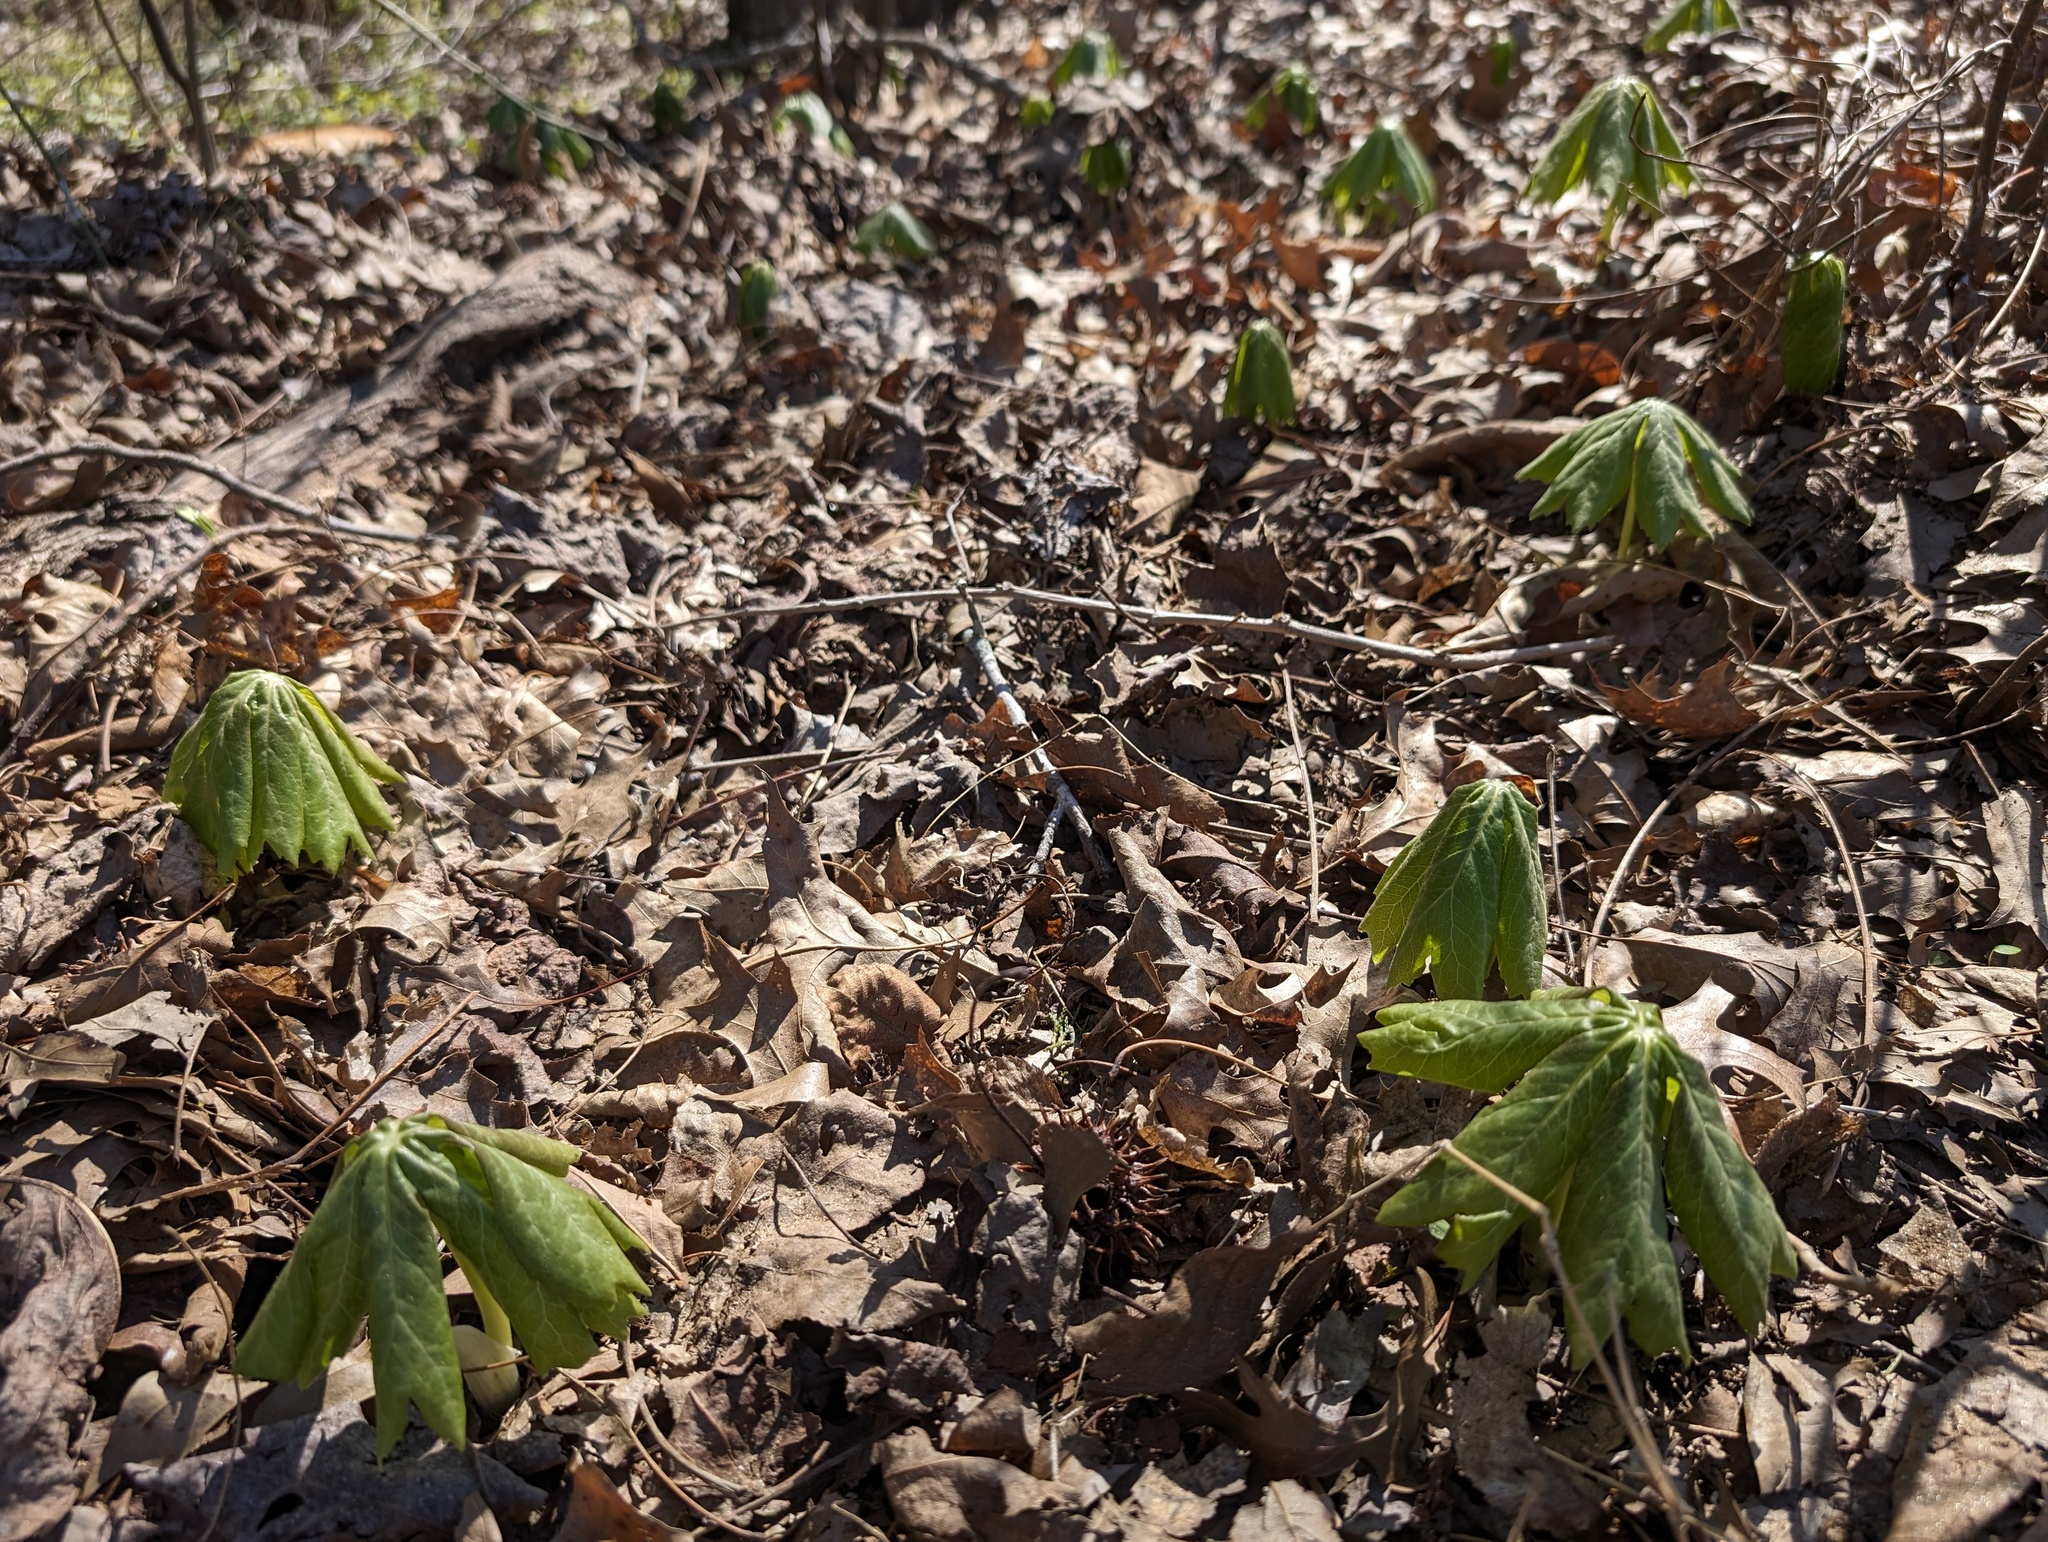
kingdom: Plantae
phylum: Tracheophyta
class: Magnoliopsida
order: Ranunculales
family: Berberidaceae
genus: Podophyllum
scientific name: Podophyllum peltatum
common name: Wild mandrake
